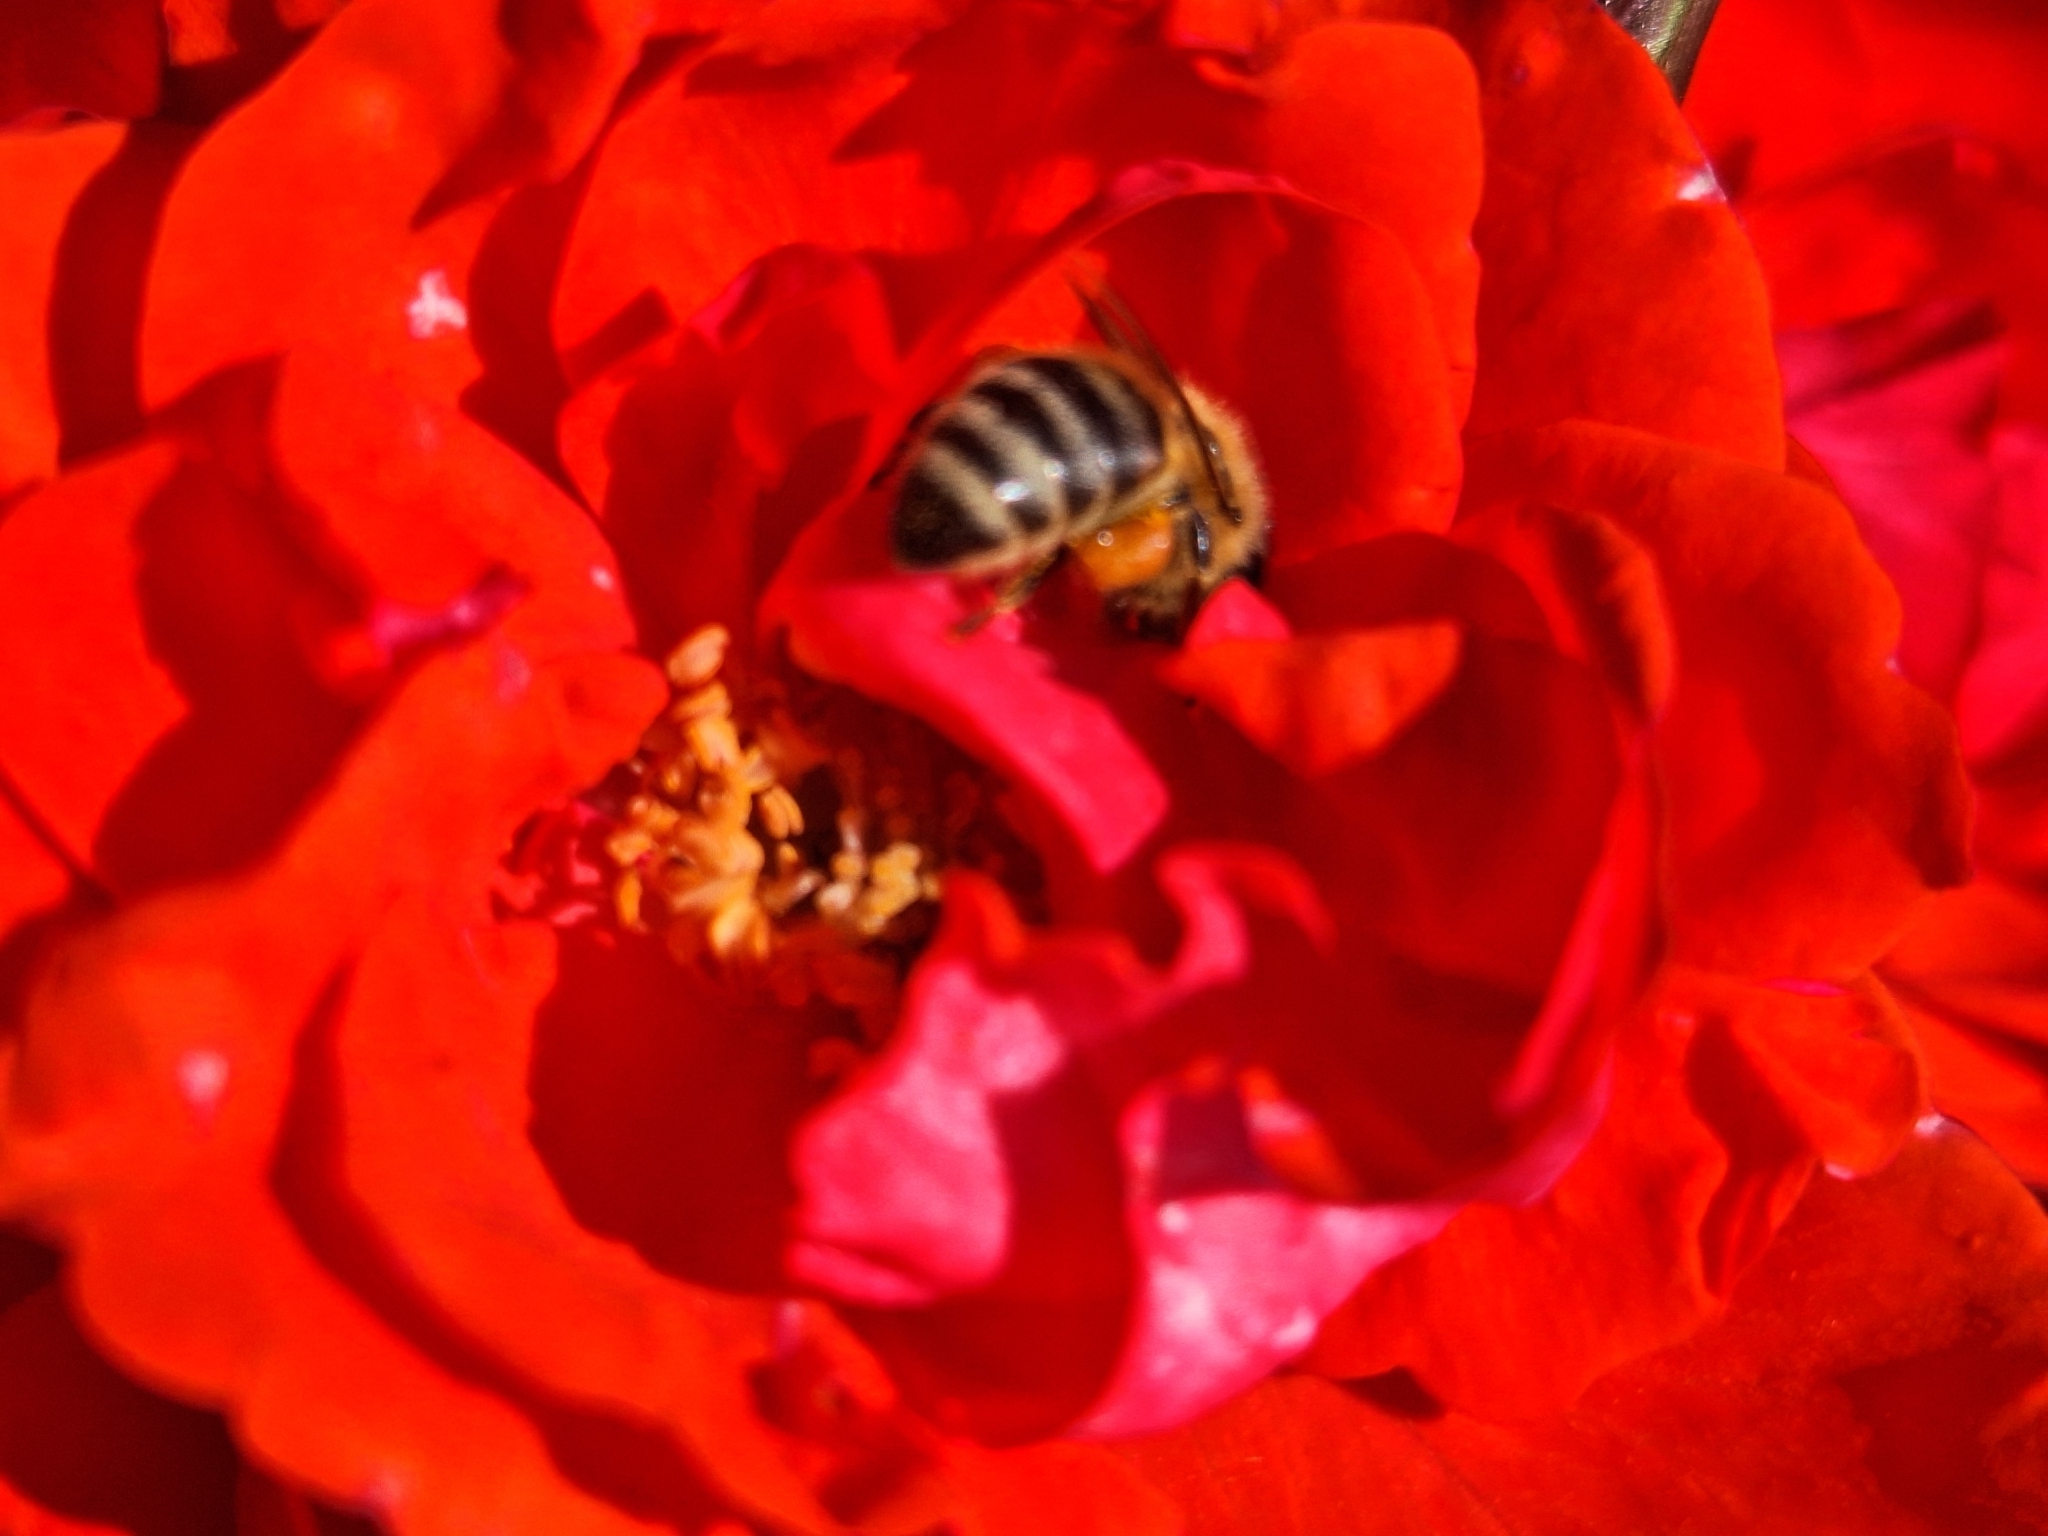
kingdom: Animalia
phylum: Arthropoda
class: Insecta
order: Hymenoptera
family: Apidae
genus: Apis
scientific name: Apis mellifera
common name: Honey bee
